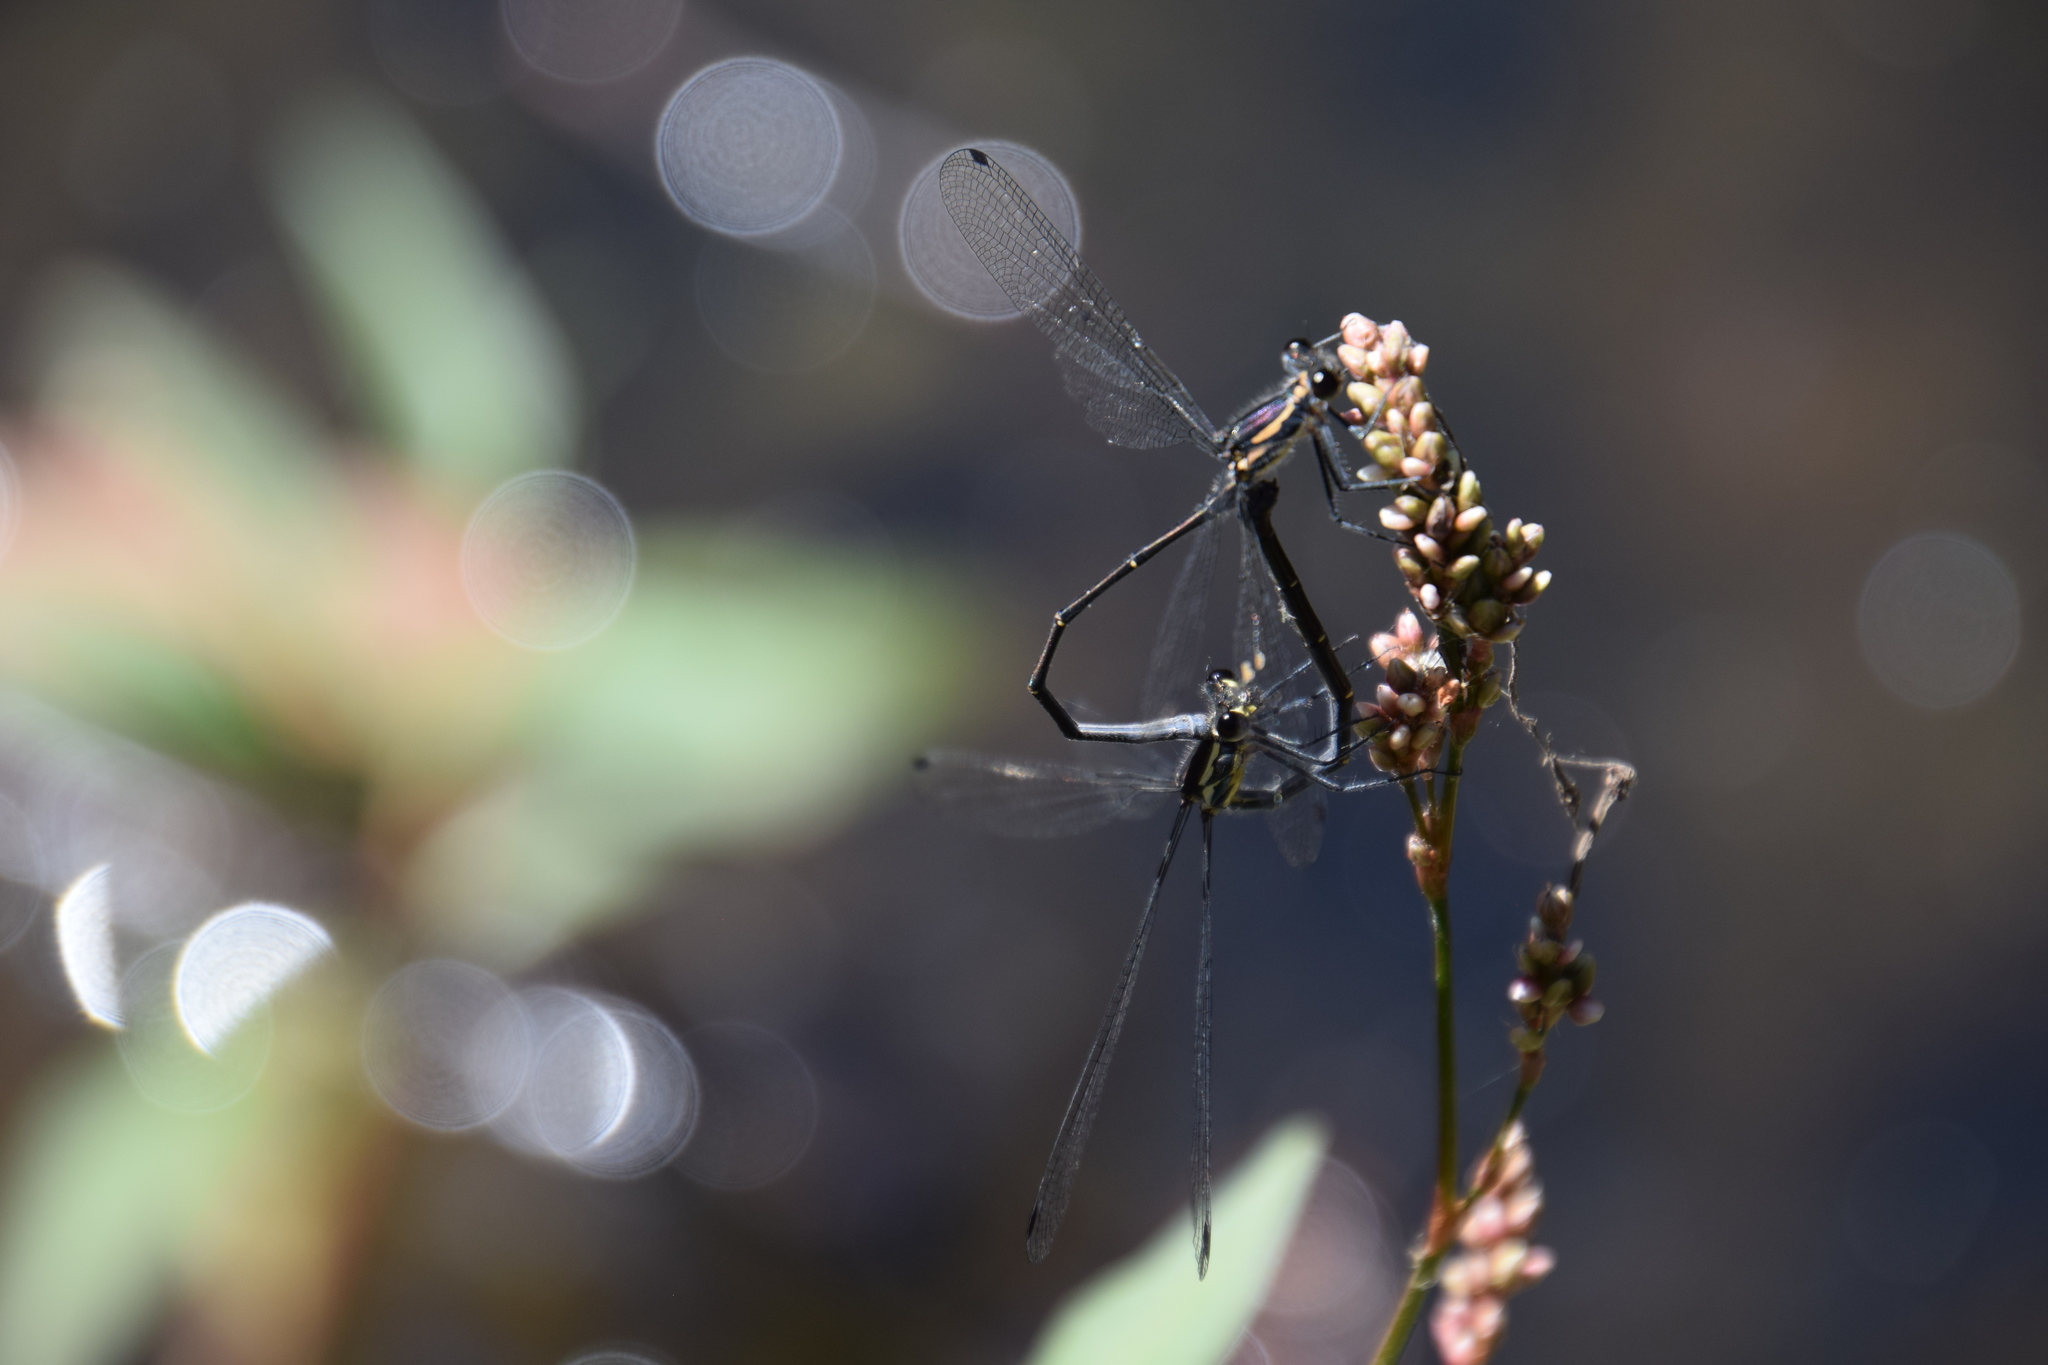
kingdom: Animalia
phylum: Arthropoda
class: Insecta
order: Odonata
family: Argiolestidae
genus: Austroargiolestes
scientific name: Austroargiolestes icteromelas
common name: Common flatwing
